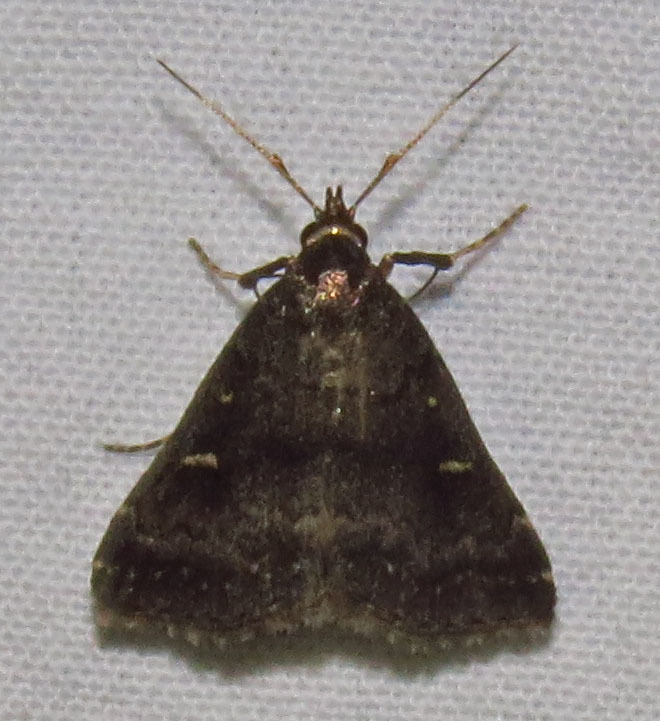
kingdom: Animalia
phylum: Arthropoda
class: Insecta
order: Lepidoptera
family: Erebidae
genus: Tetanolita
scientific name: Tetanolita mynesalis
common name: Smoky tetanolita moth
